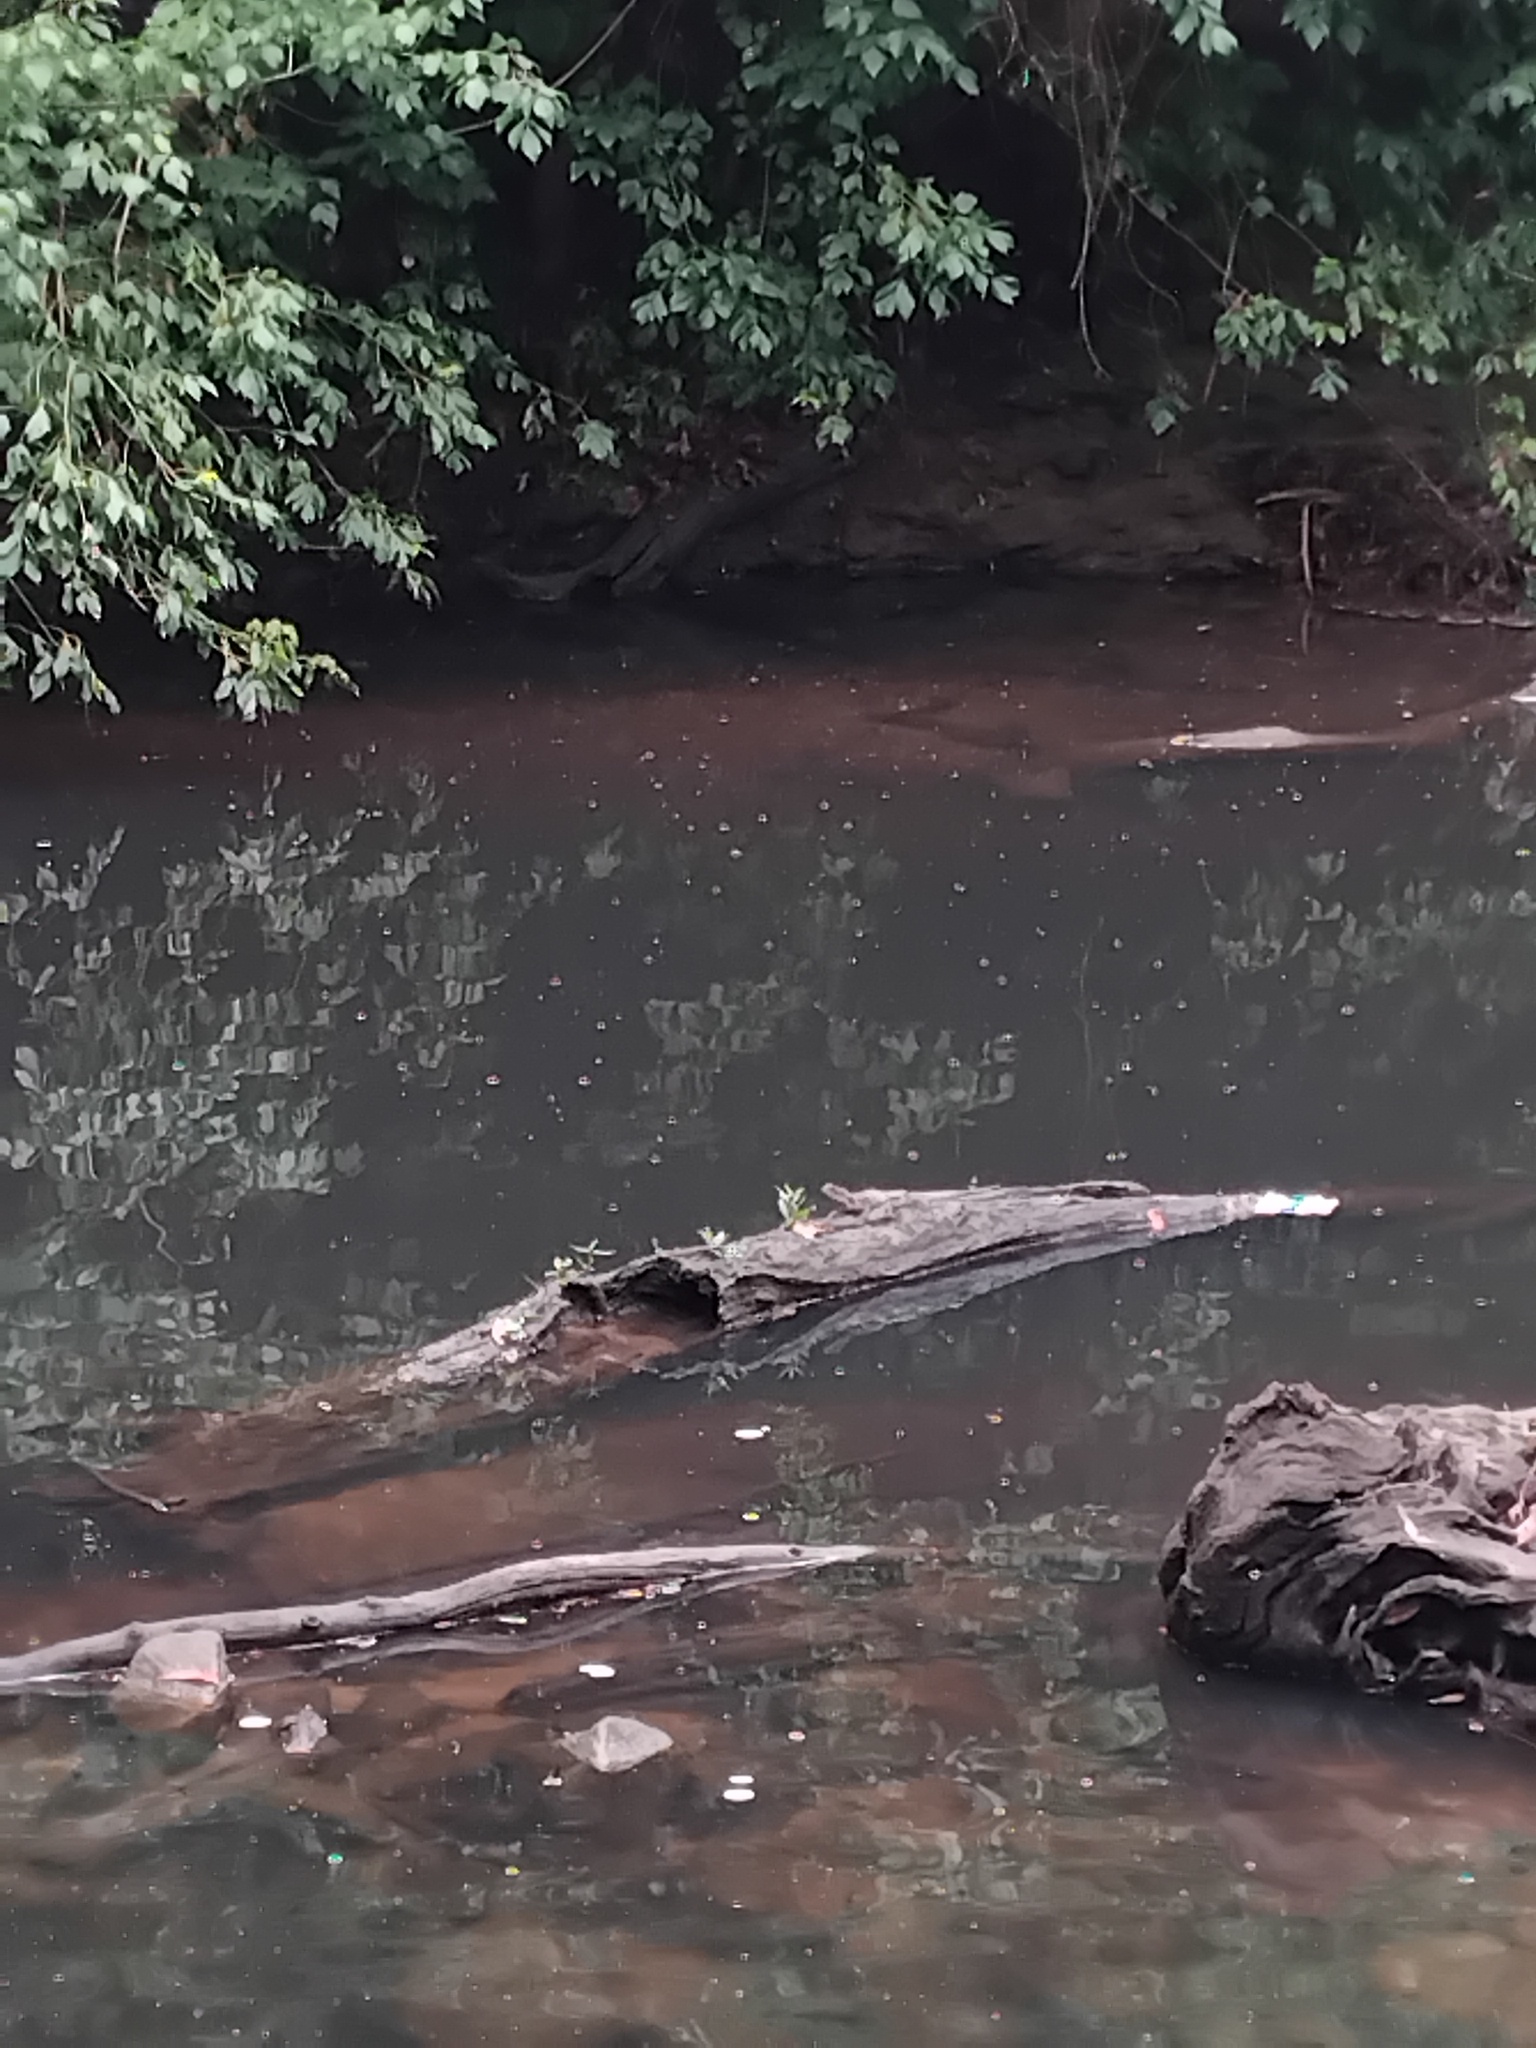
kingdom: Animalia
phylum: Chordata
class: Squamata
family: Agamidae
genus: Intellagama
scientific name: Intellagama lesueurii
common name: Eastern water dragon
